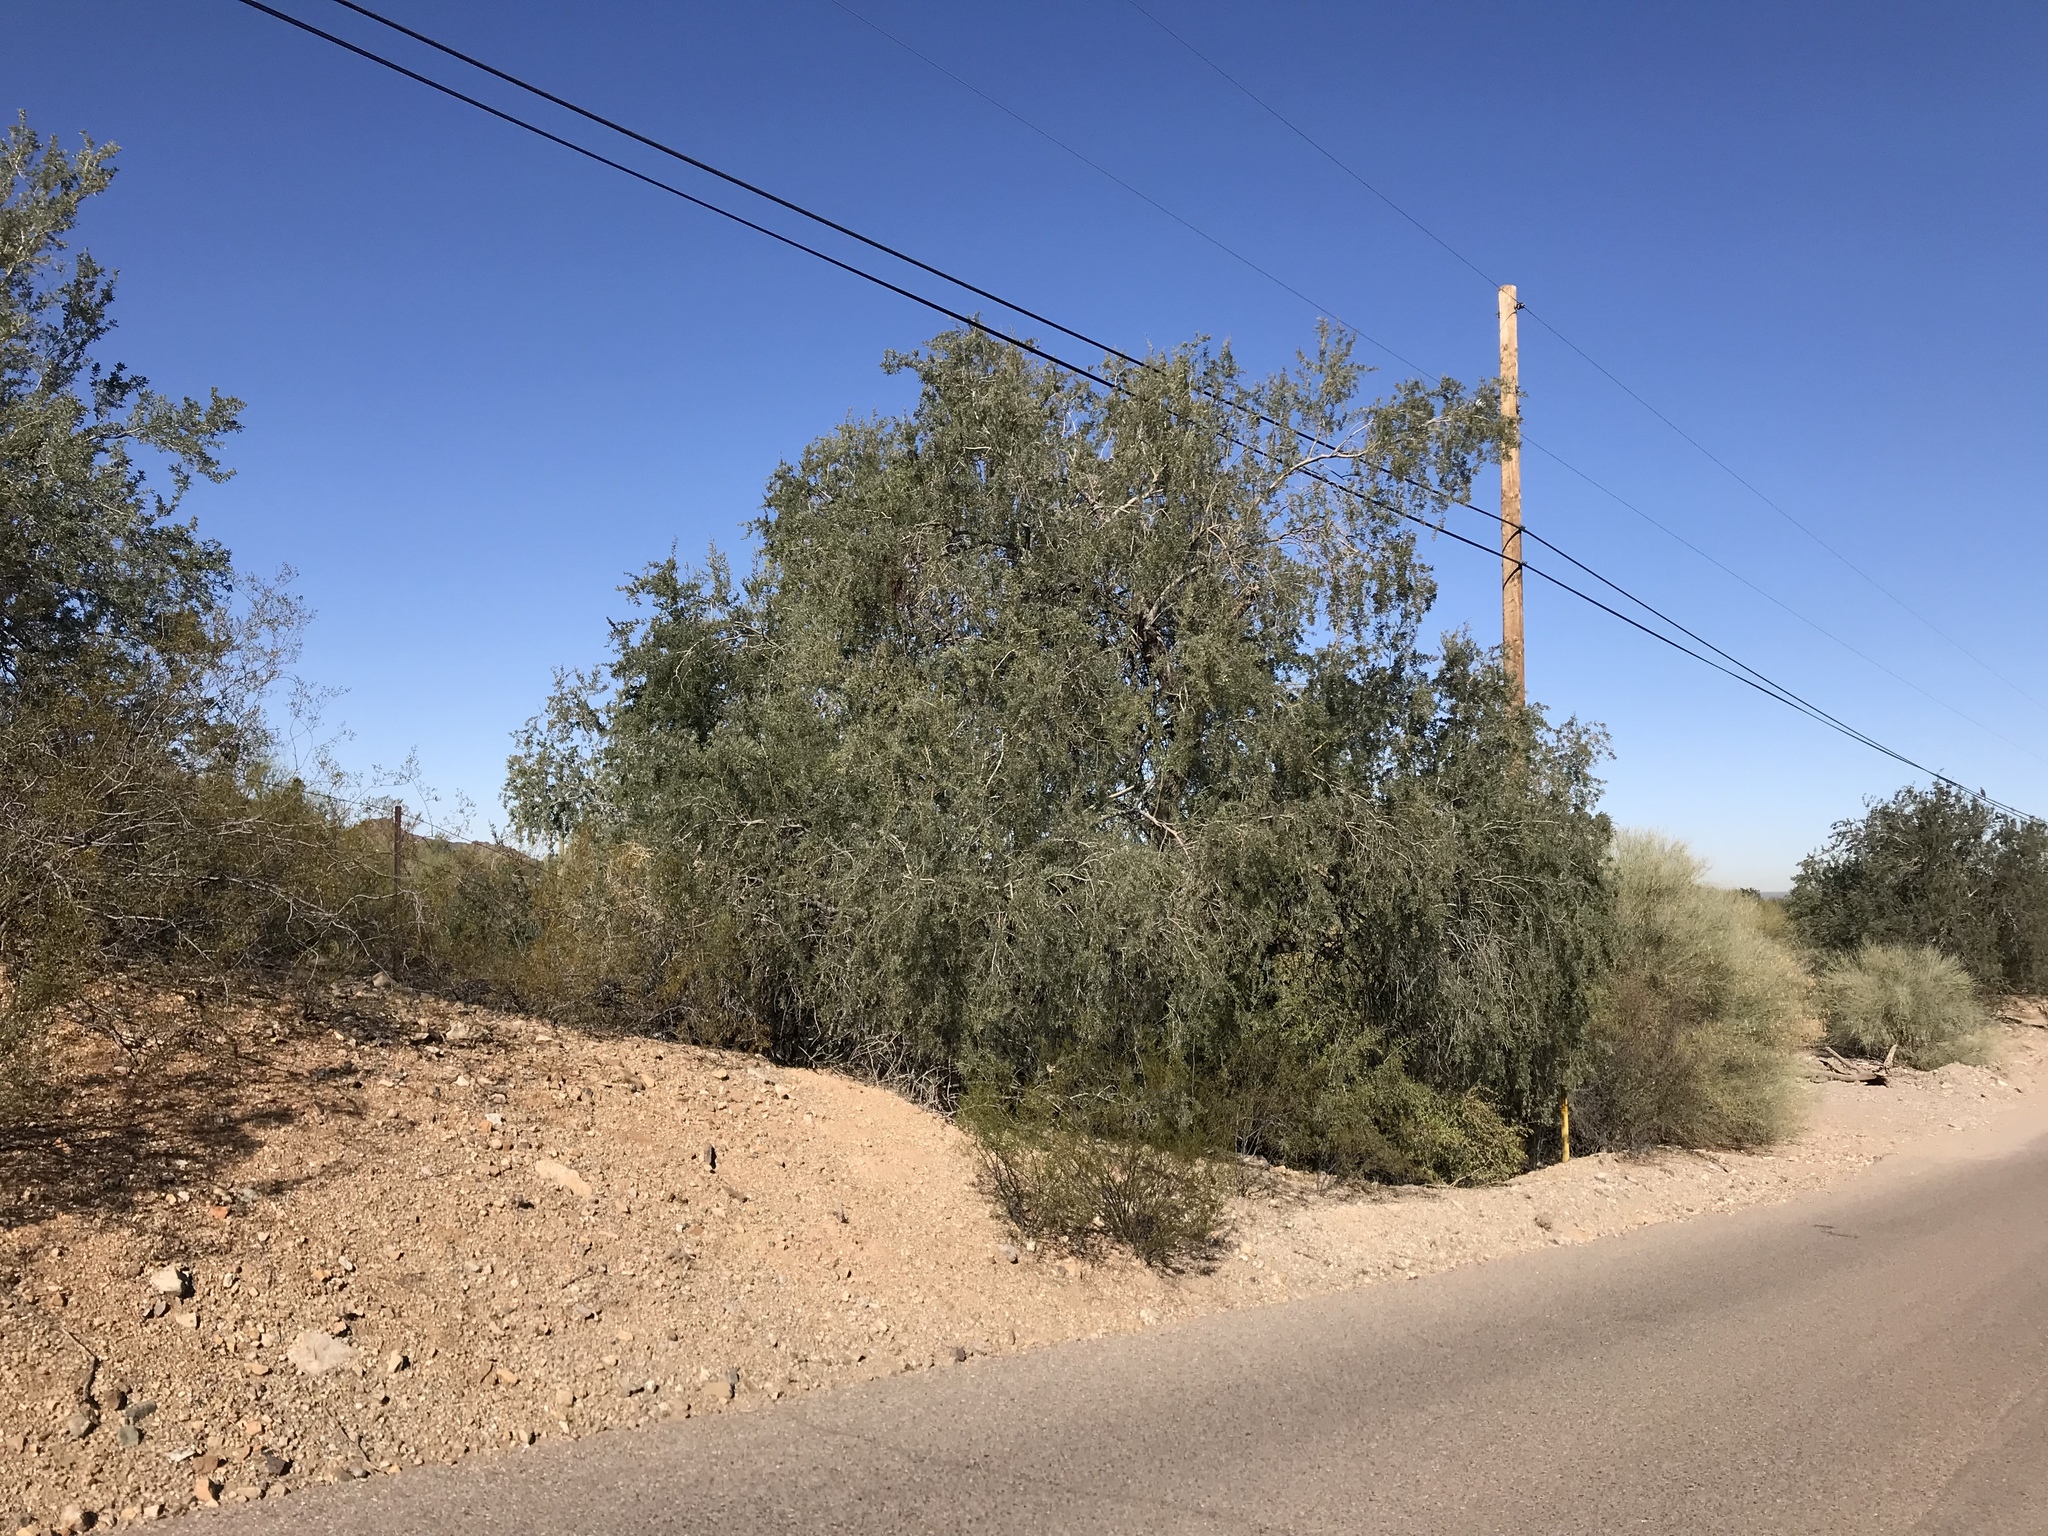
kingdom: Plantae
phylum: Tracheophyta
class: Magnoliopsida
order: Fabales
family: Fabaceae
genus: Olneya
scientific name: Olneya tesota
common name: Desert ironwood
